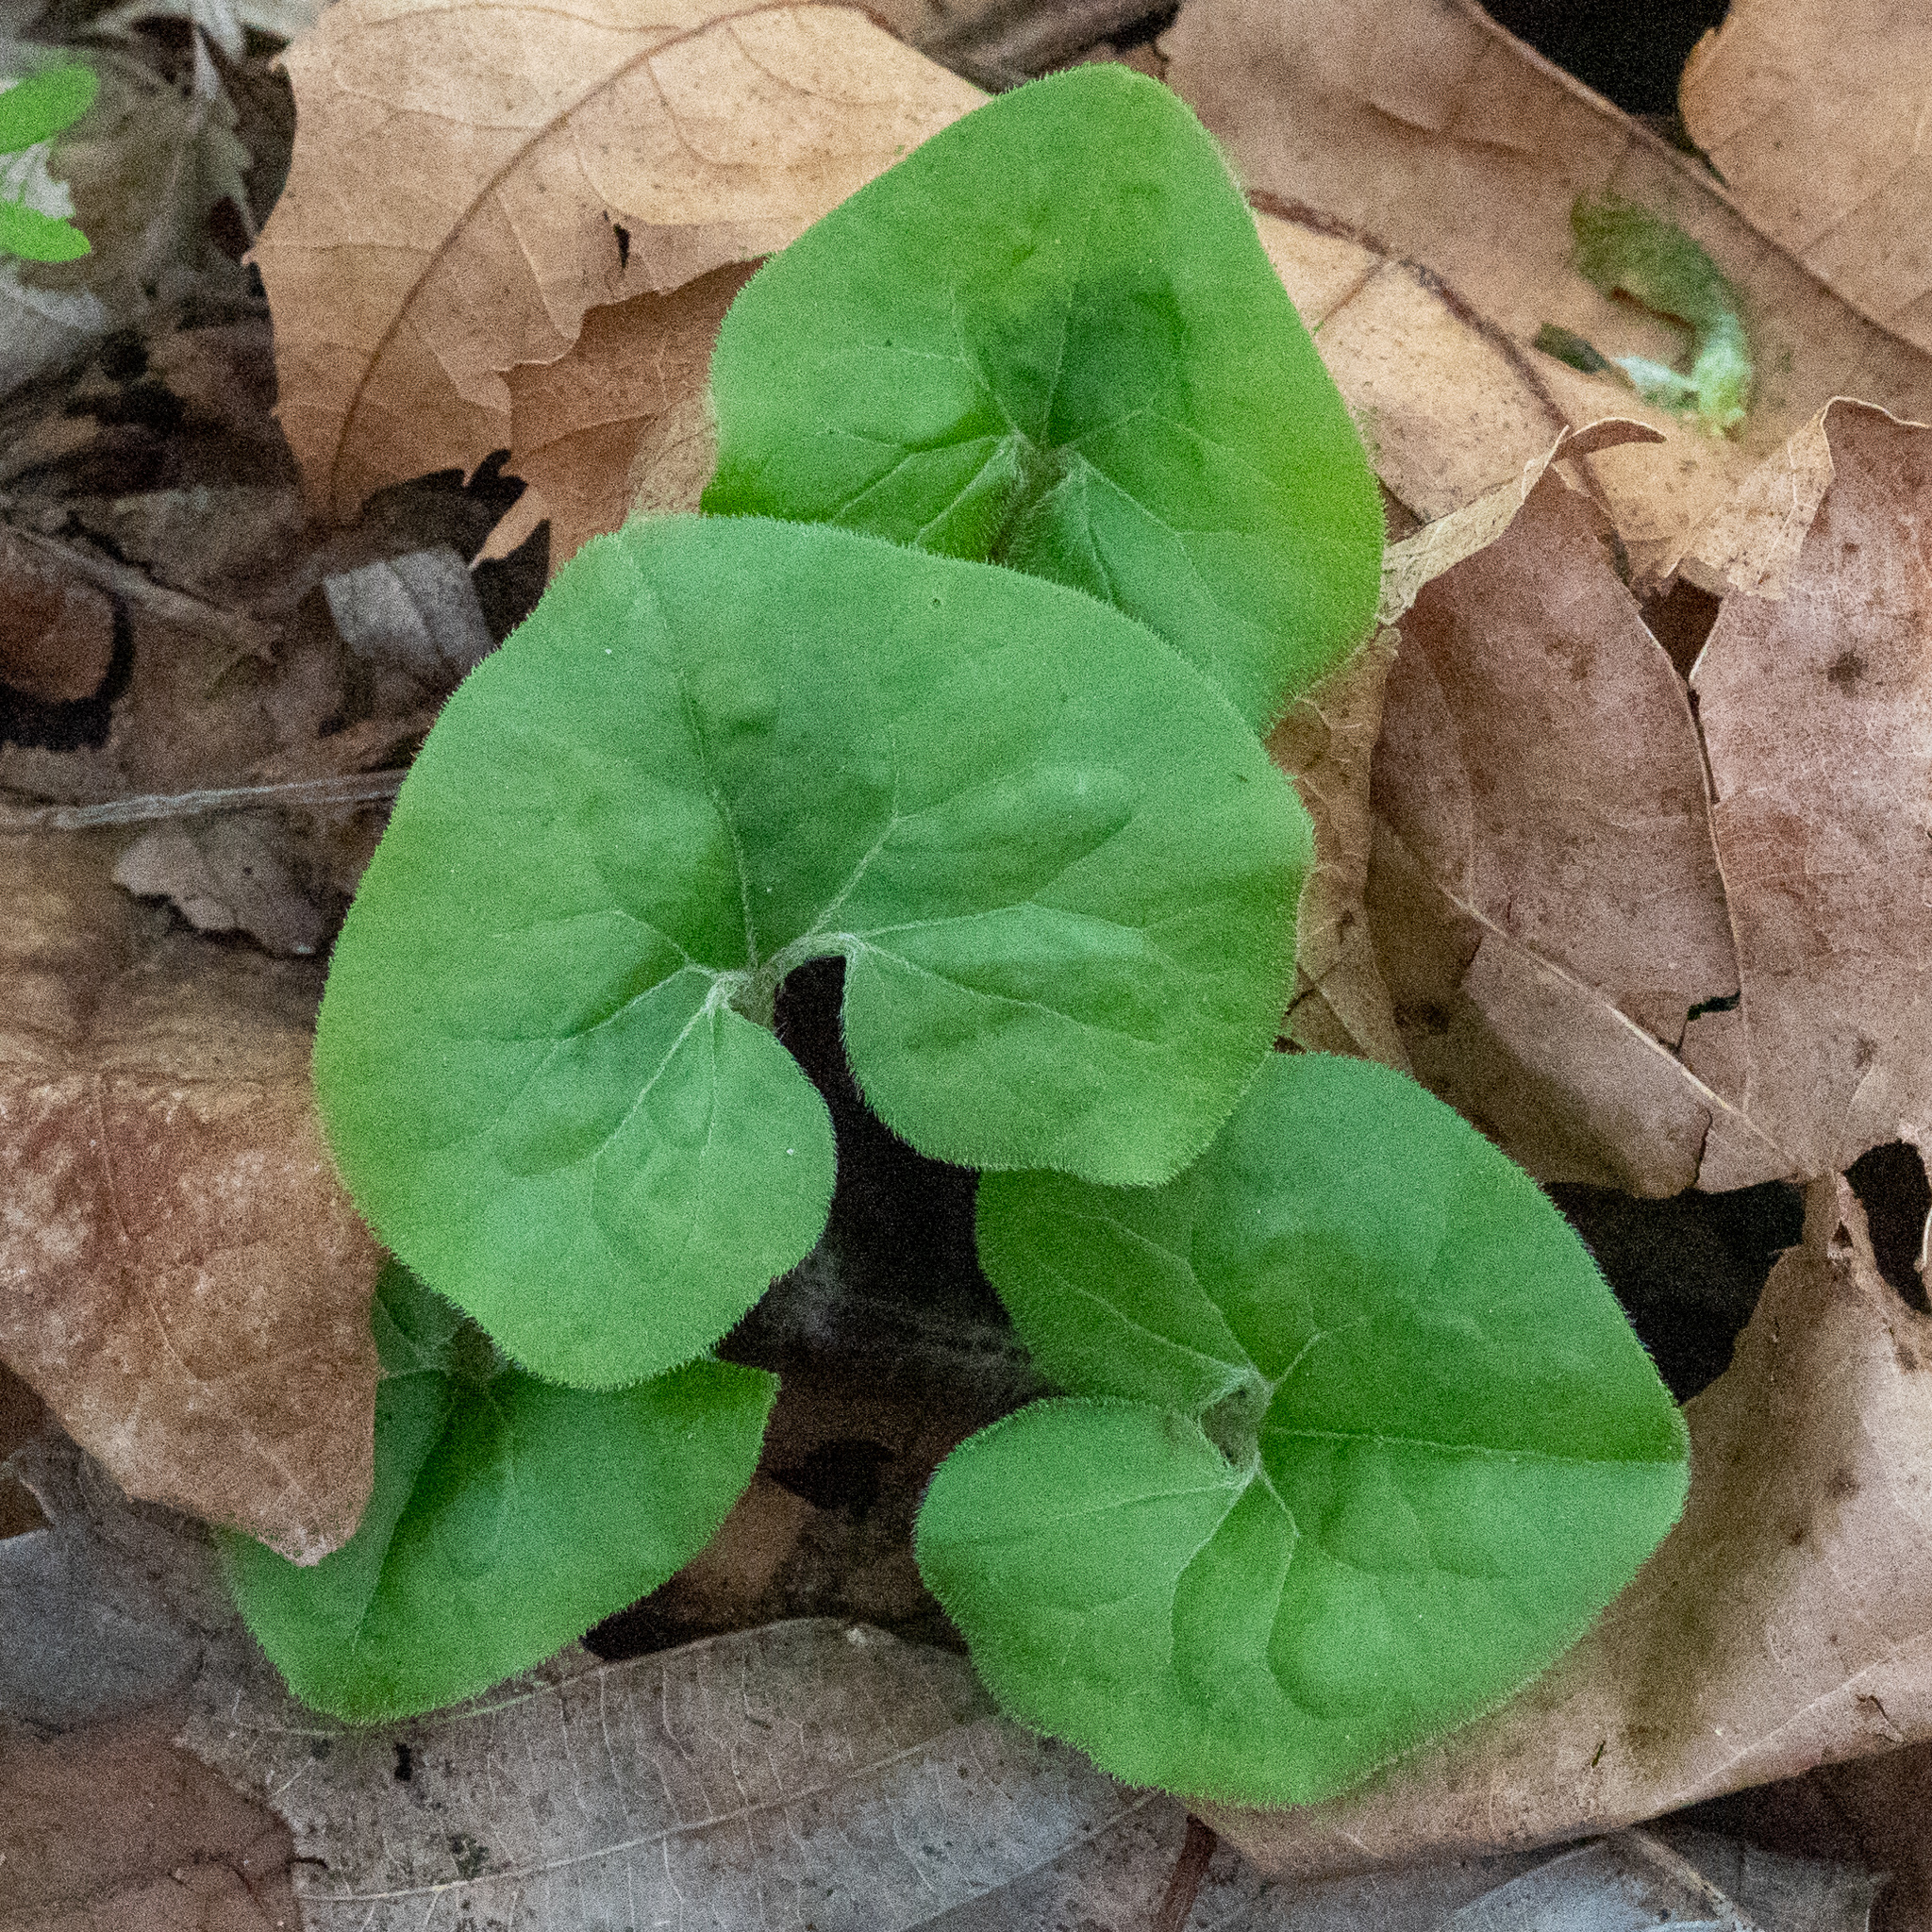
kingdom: Plantae
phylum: Tracheophyta
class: Magnoliopsida
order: Piperales
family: Aristolochiaceae
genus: Asarum
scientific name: Asarum canadense
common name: Wild ginger
